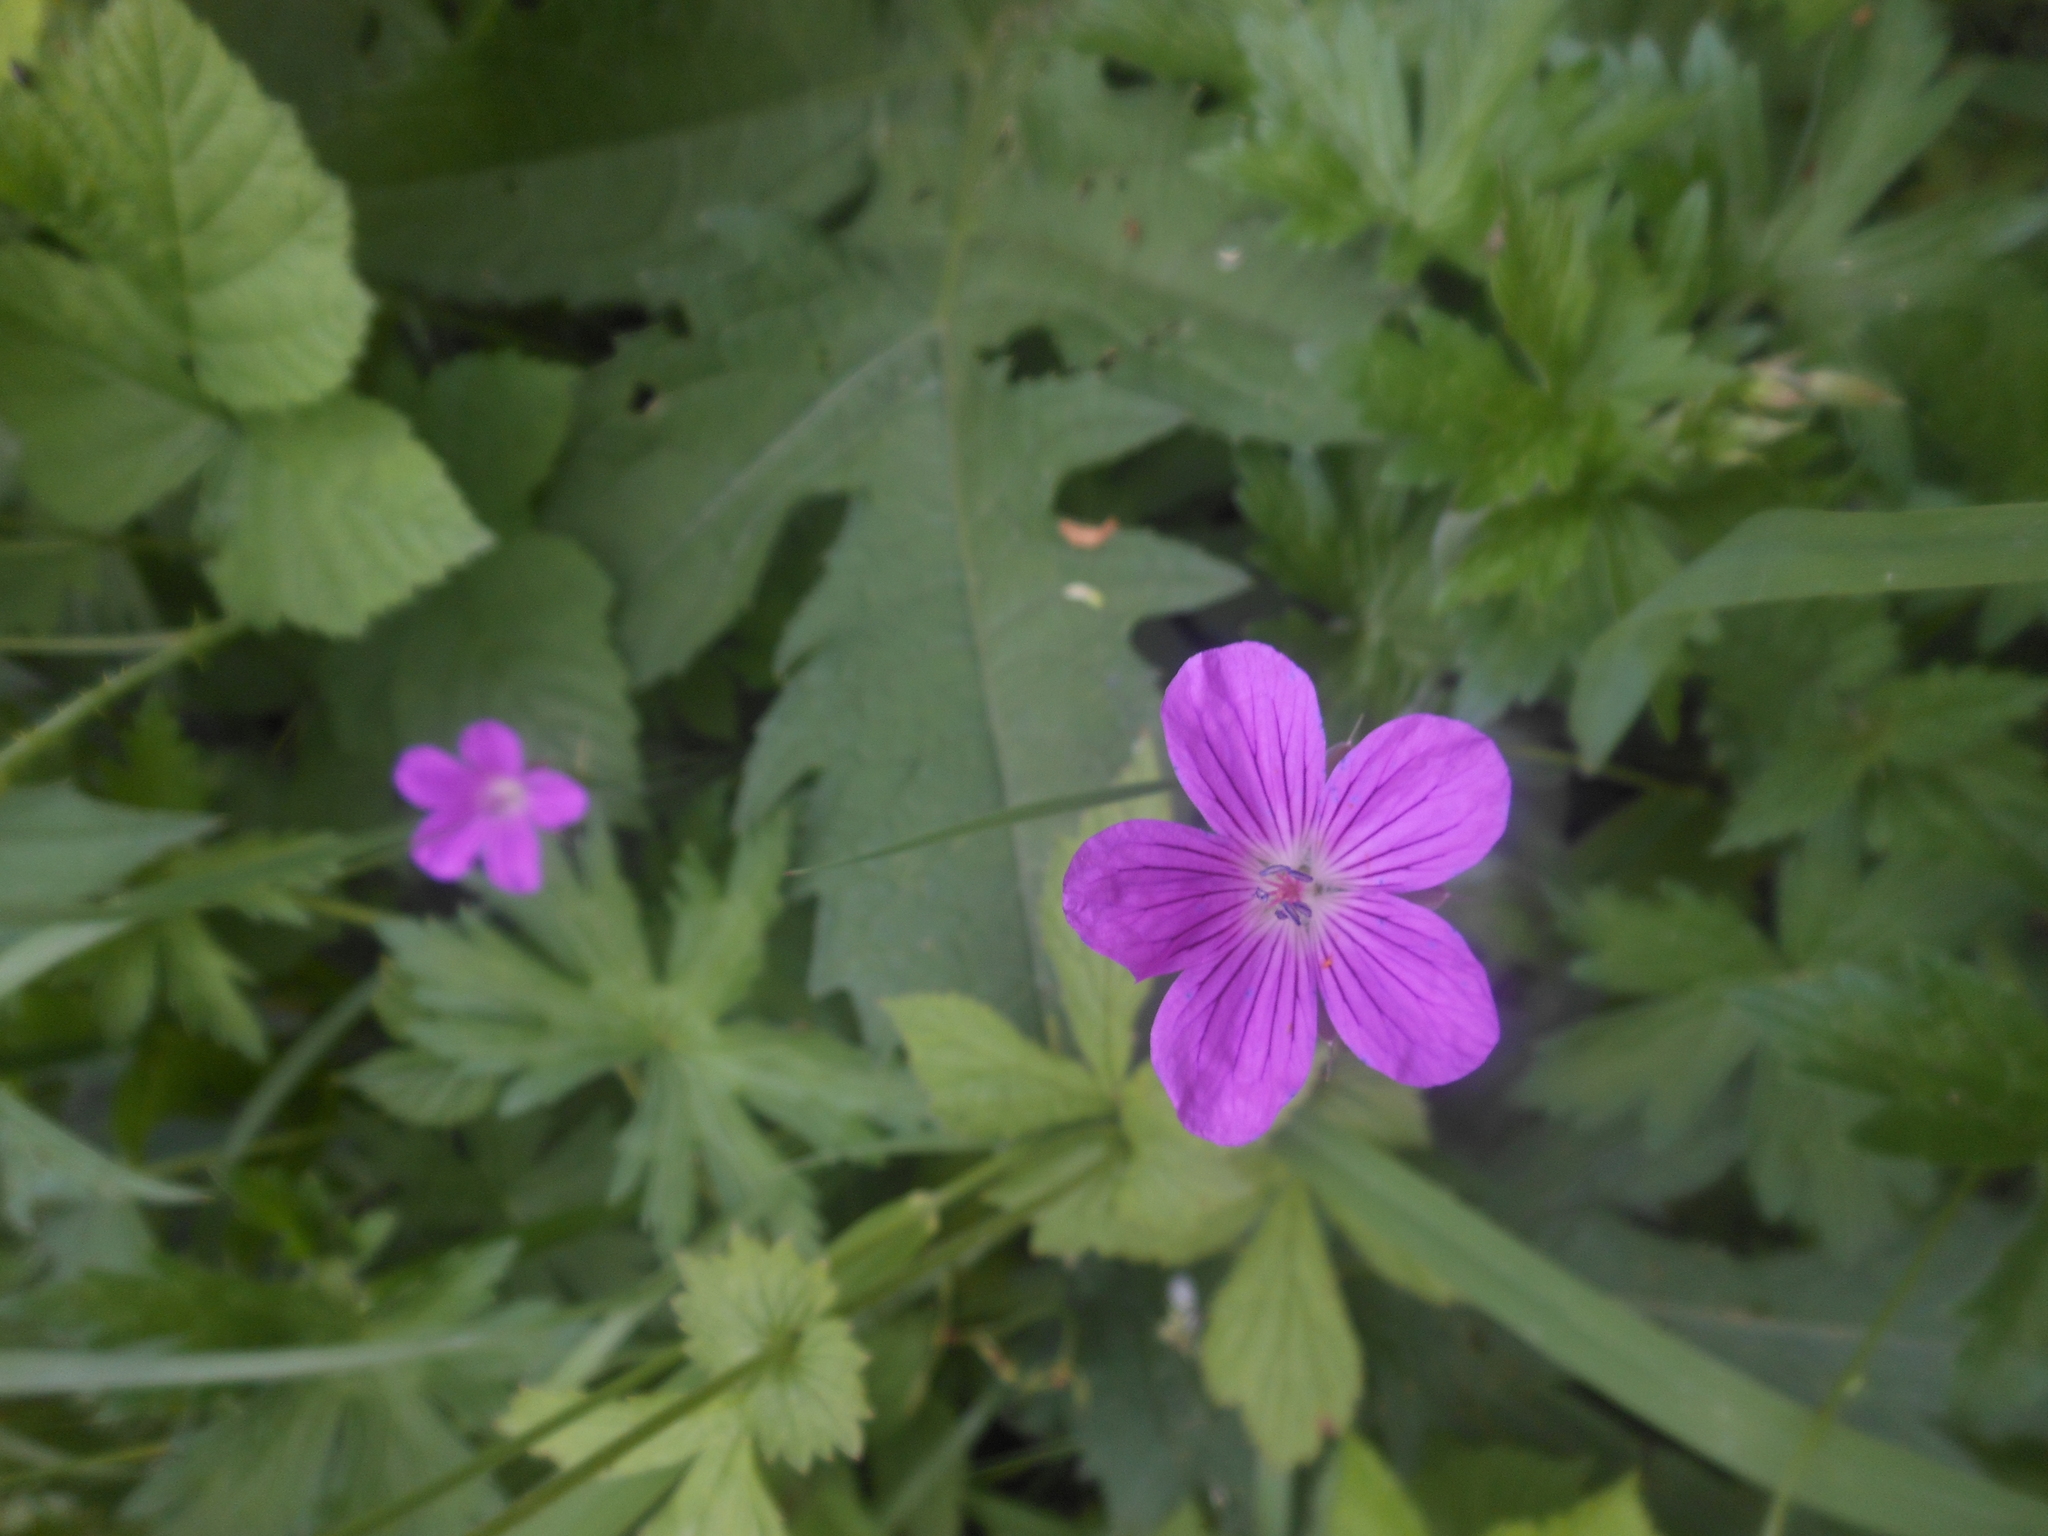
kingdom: Plantae
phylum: Tracheophyta
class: Magnoliopsida
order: Geraniales
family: Geraniaceae
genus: Geranium
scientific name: Geranium palustre
